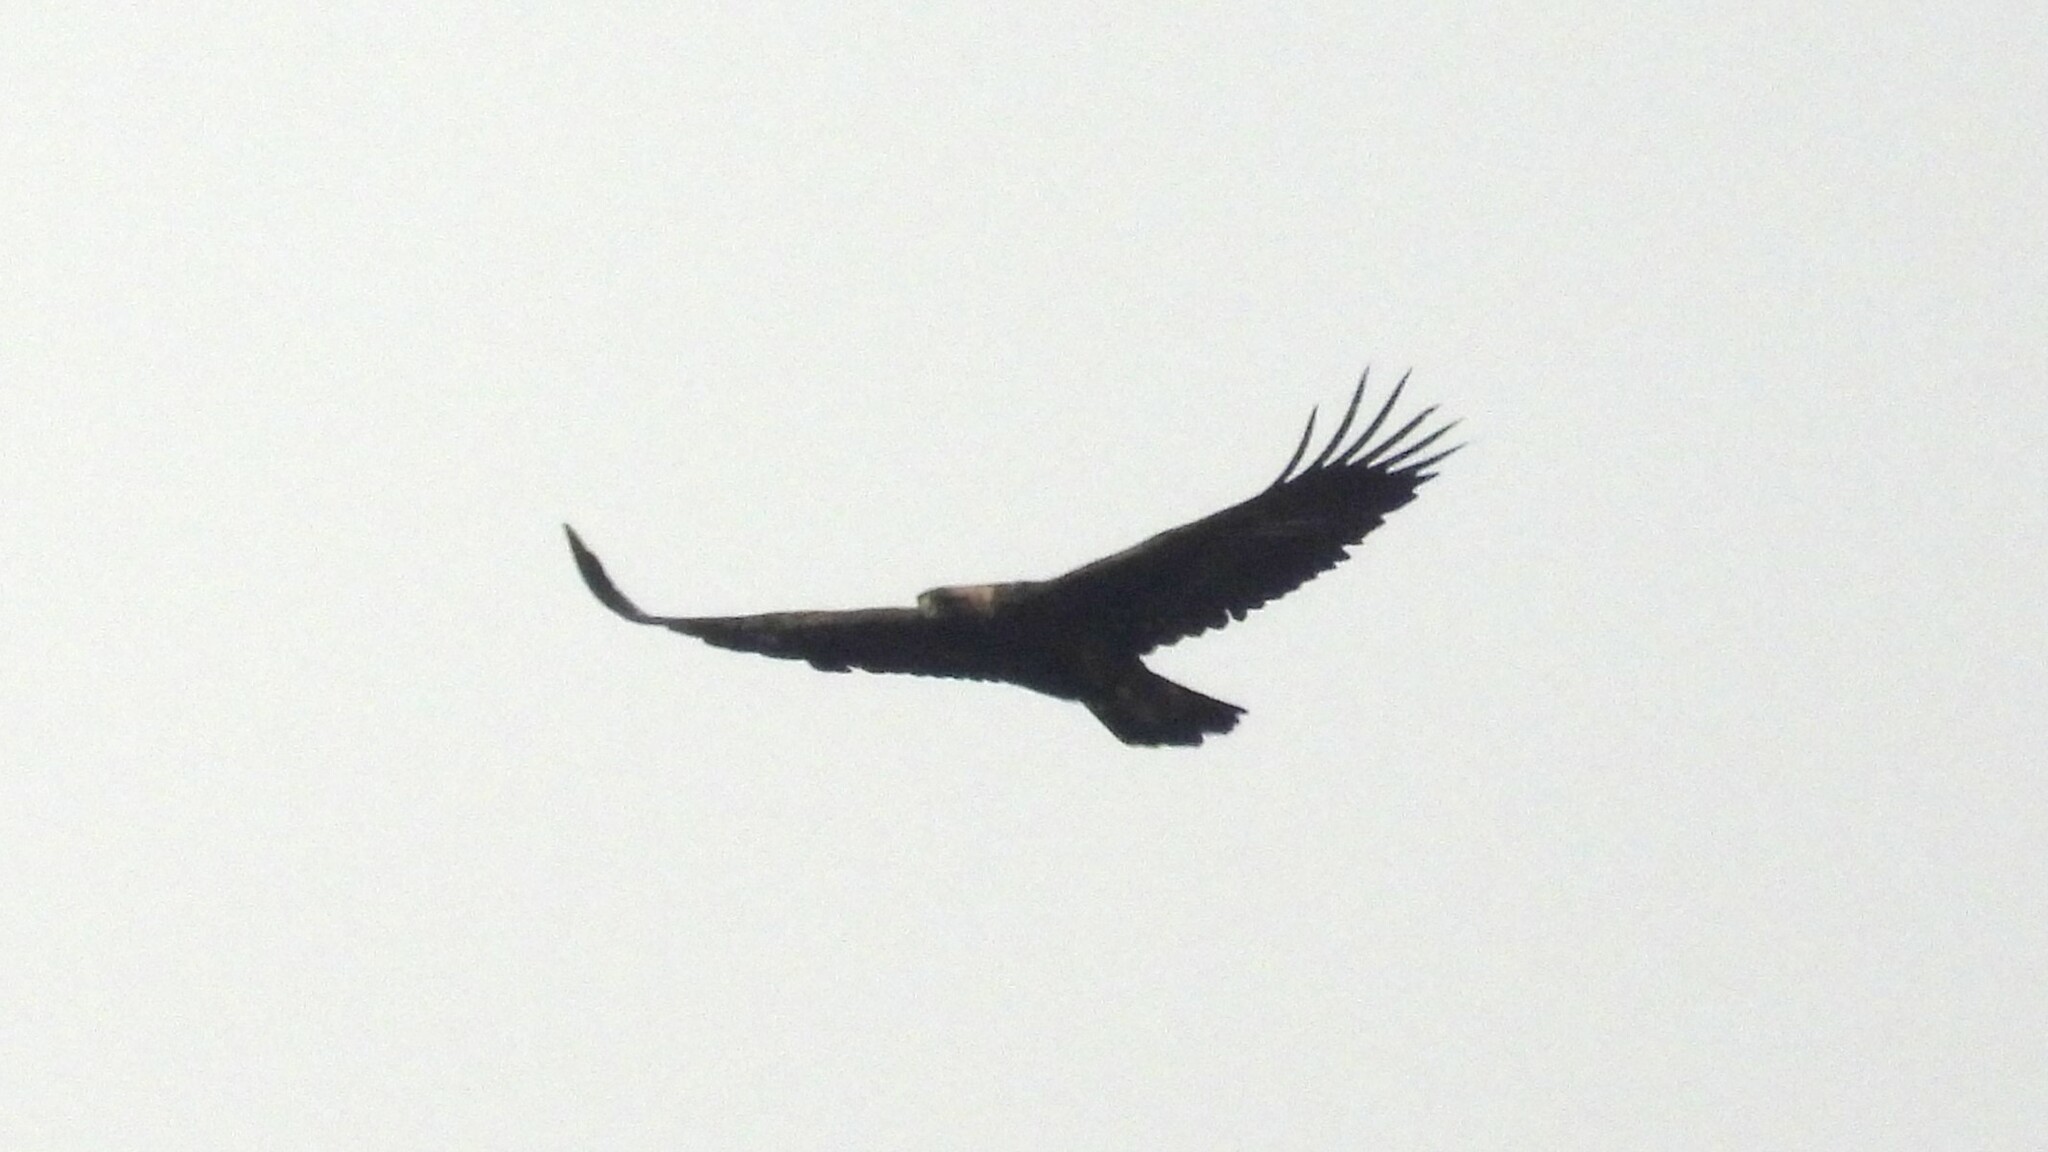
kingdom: Animalia
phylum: Chordata
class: Aves
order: Accipitriformes
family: Accipitridae
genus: Aquila
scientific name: Aquila chrysaetos
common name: Golden eagle
